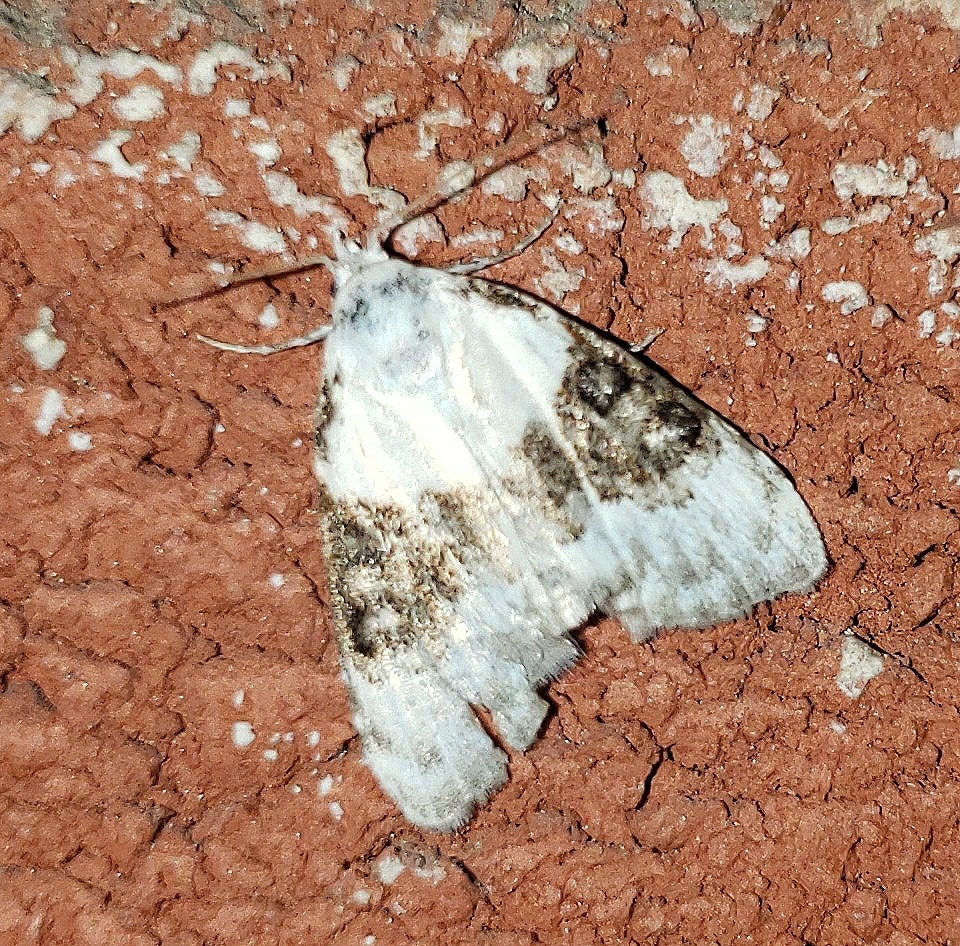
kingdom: Animalia
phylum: Arthropoda
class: Insecta
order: Lepidoptera
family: Nolidae
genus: Nola
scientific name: Nola pustulata
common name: Sharp-blotched nola moth
